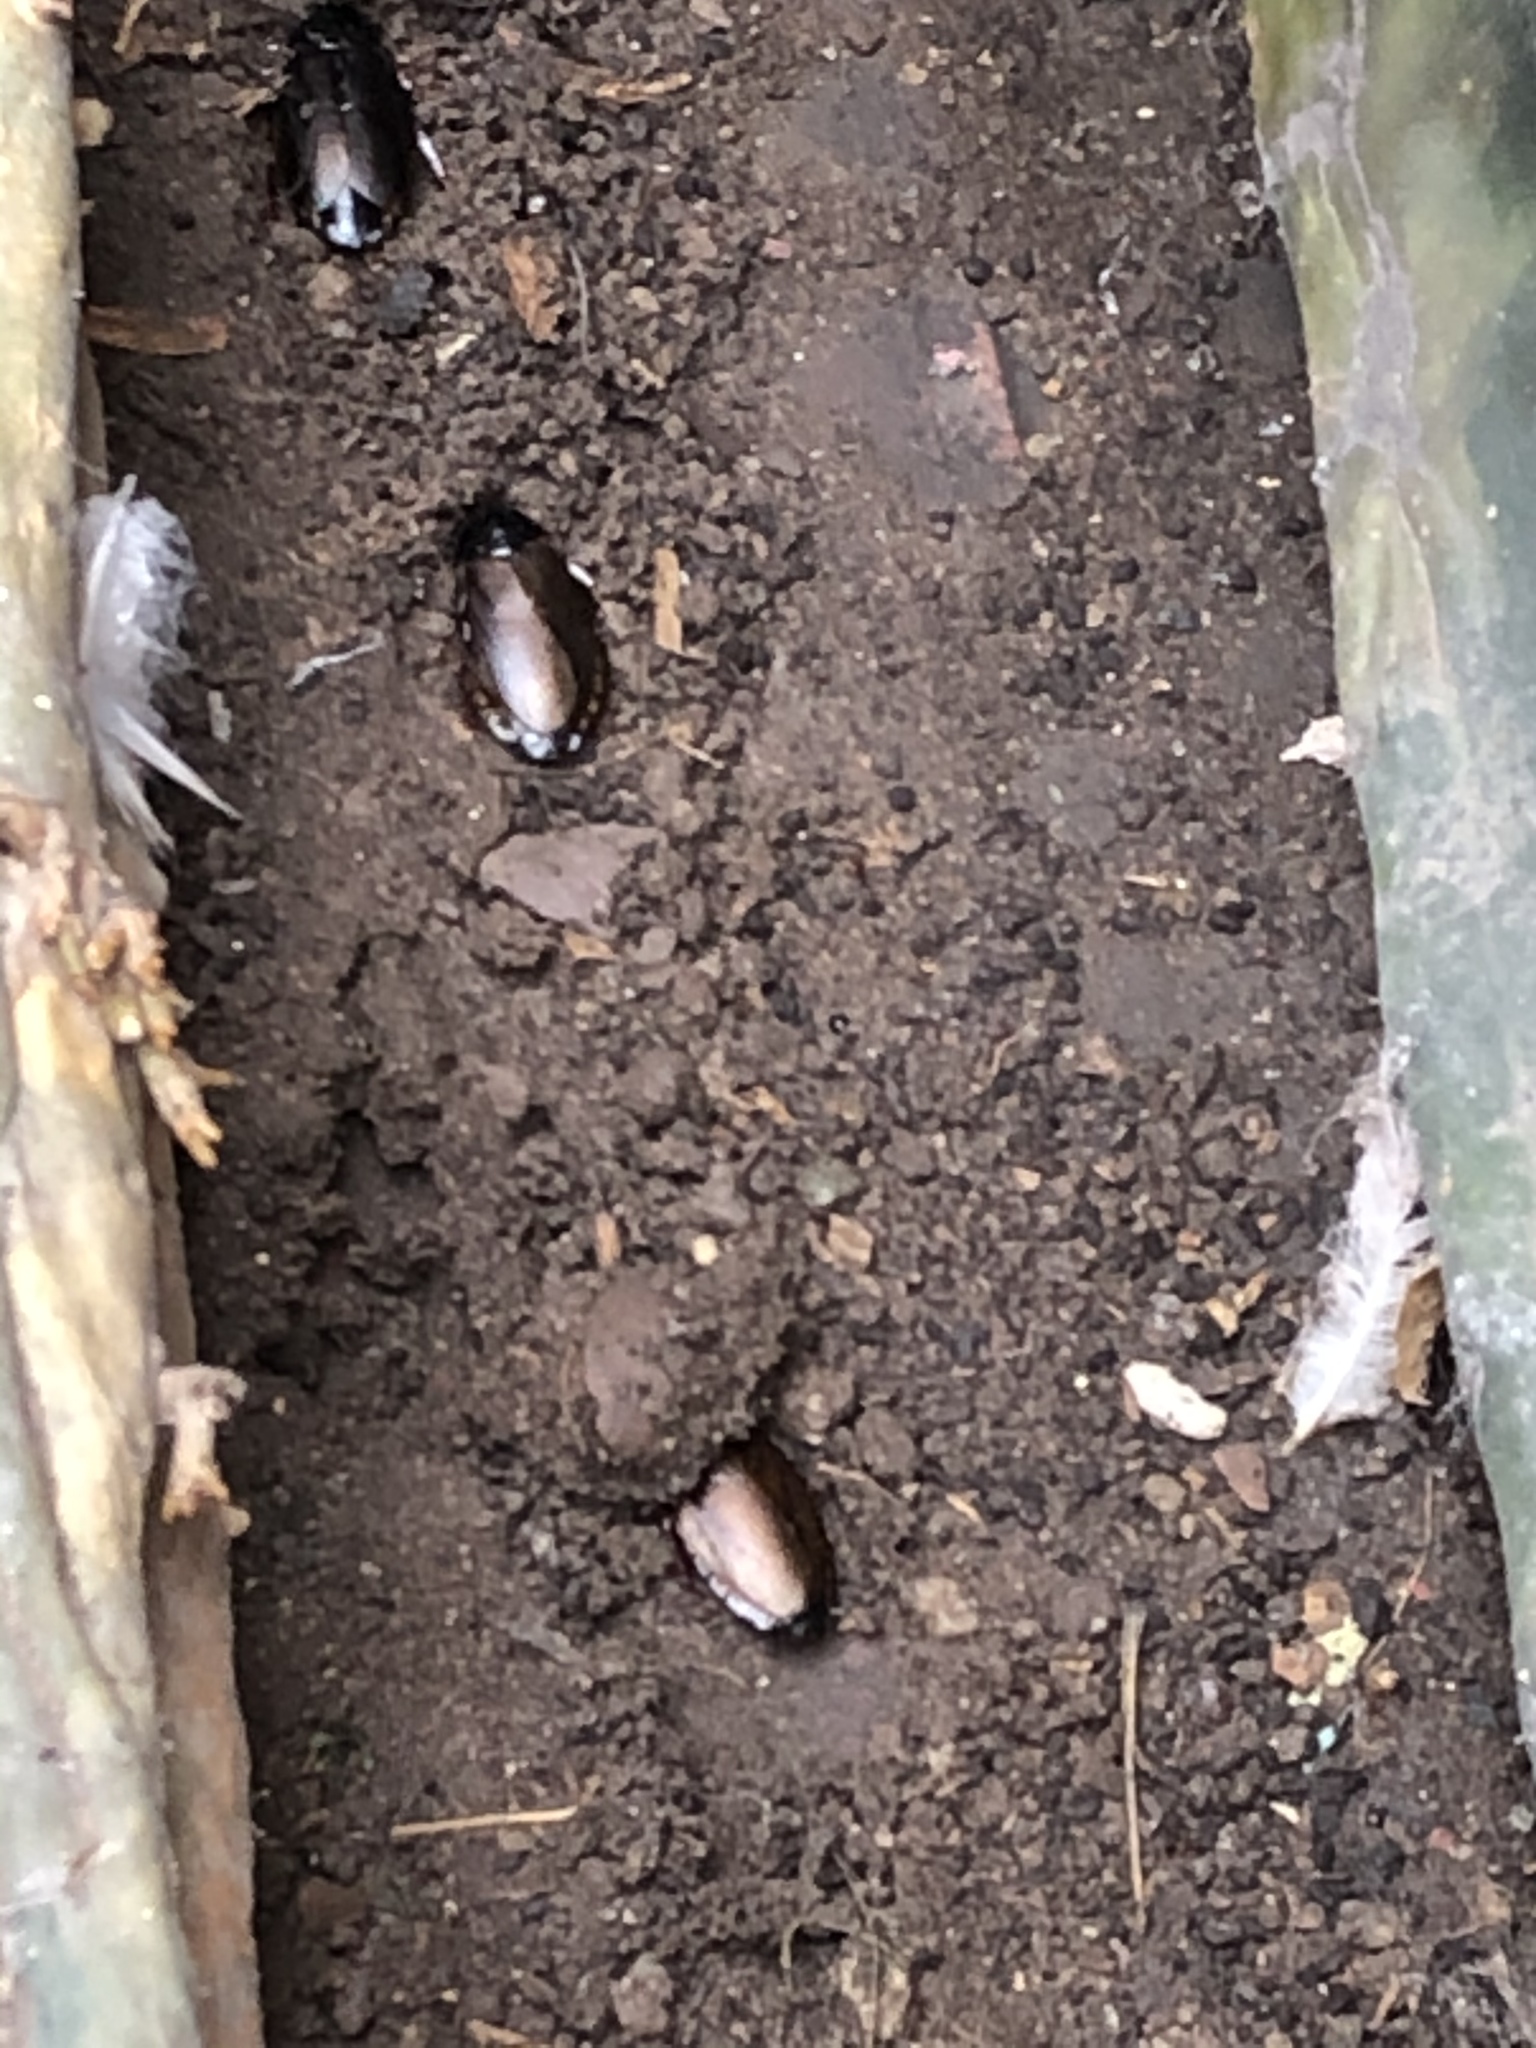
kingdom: Animalia
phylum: Arthropoda
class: Insecta
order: Blattodea
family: Blaberidae
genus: Pycnoscelus
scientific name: Pycnoscelus surinamensis
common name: Surinam cockroach
